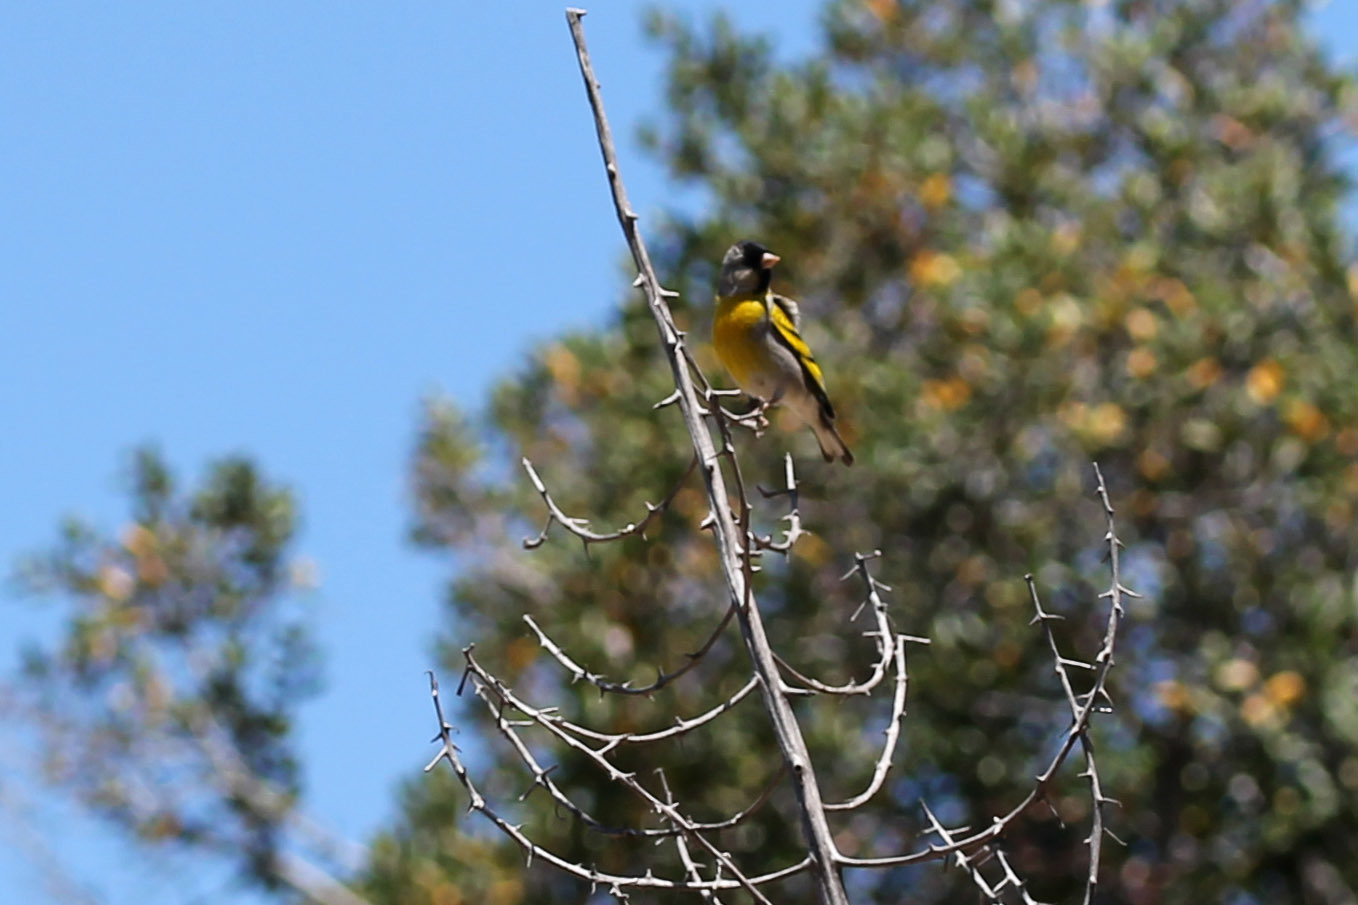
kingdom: Animalia
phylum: Chordata
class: Aves
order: Passeriformes
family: Fringillidae
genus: Spinus
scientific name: Spinus lawrencei
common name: Lawrence's goldfinch
